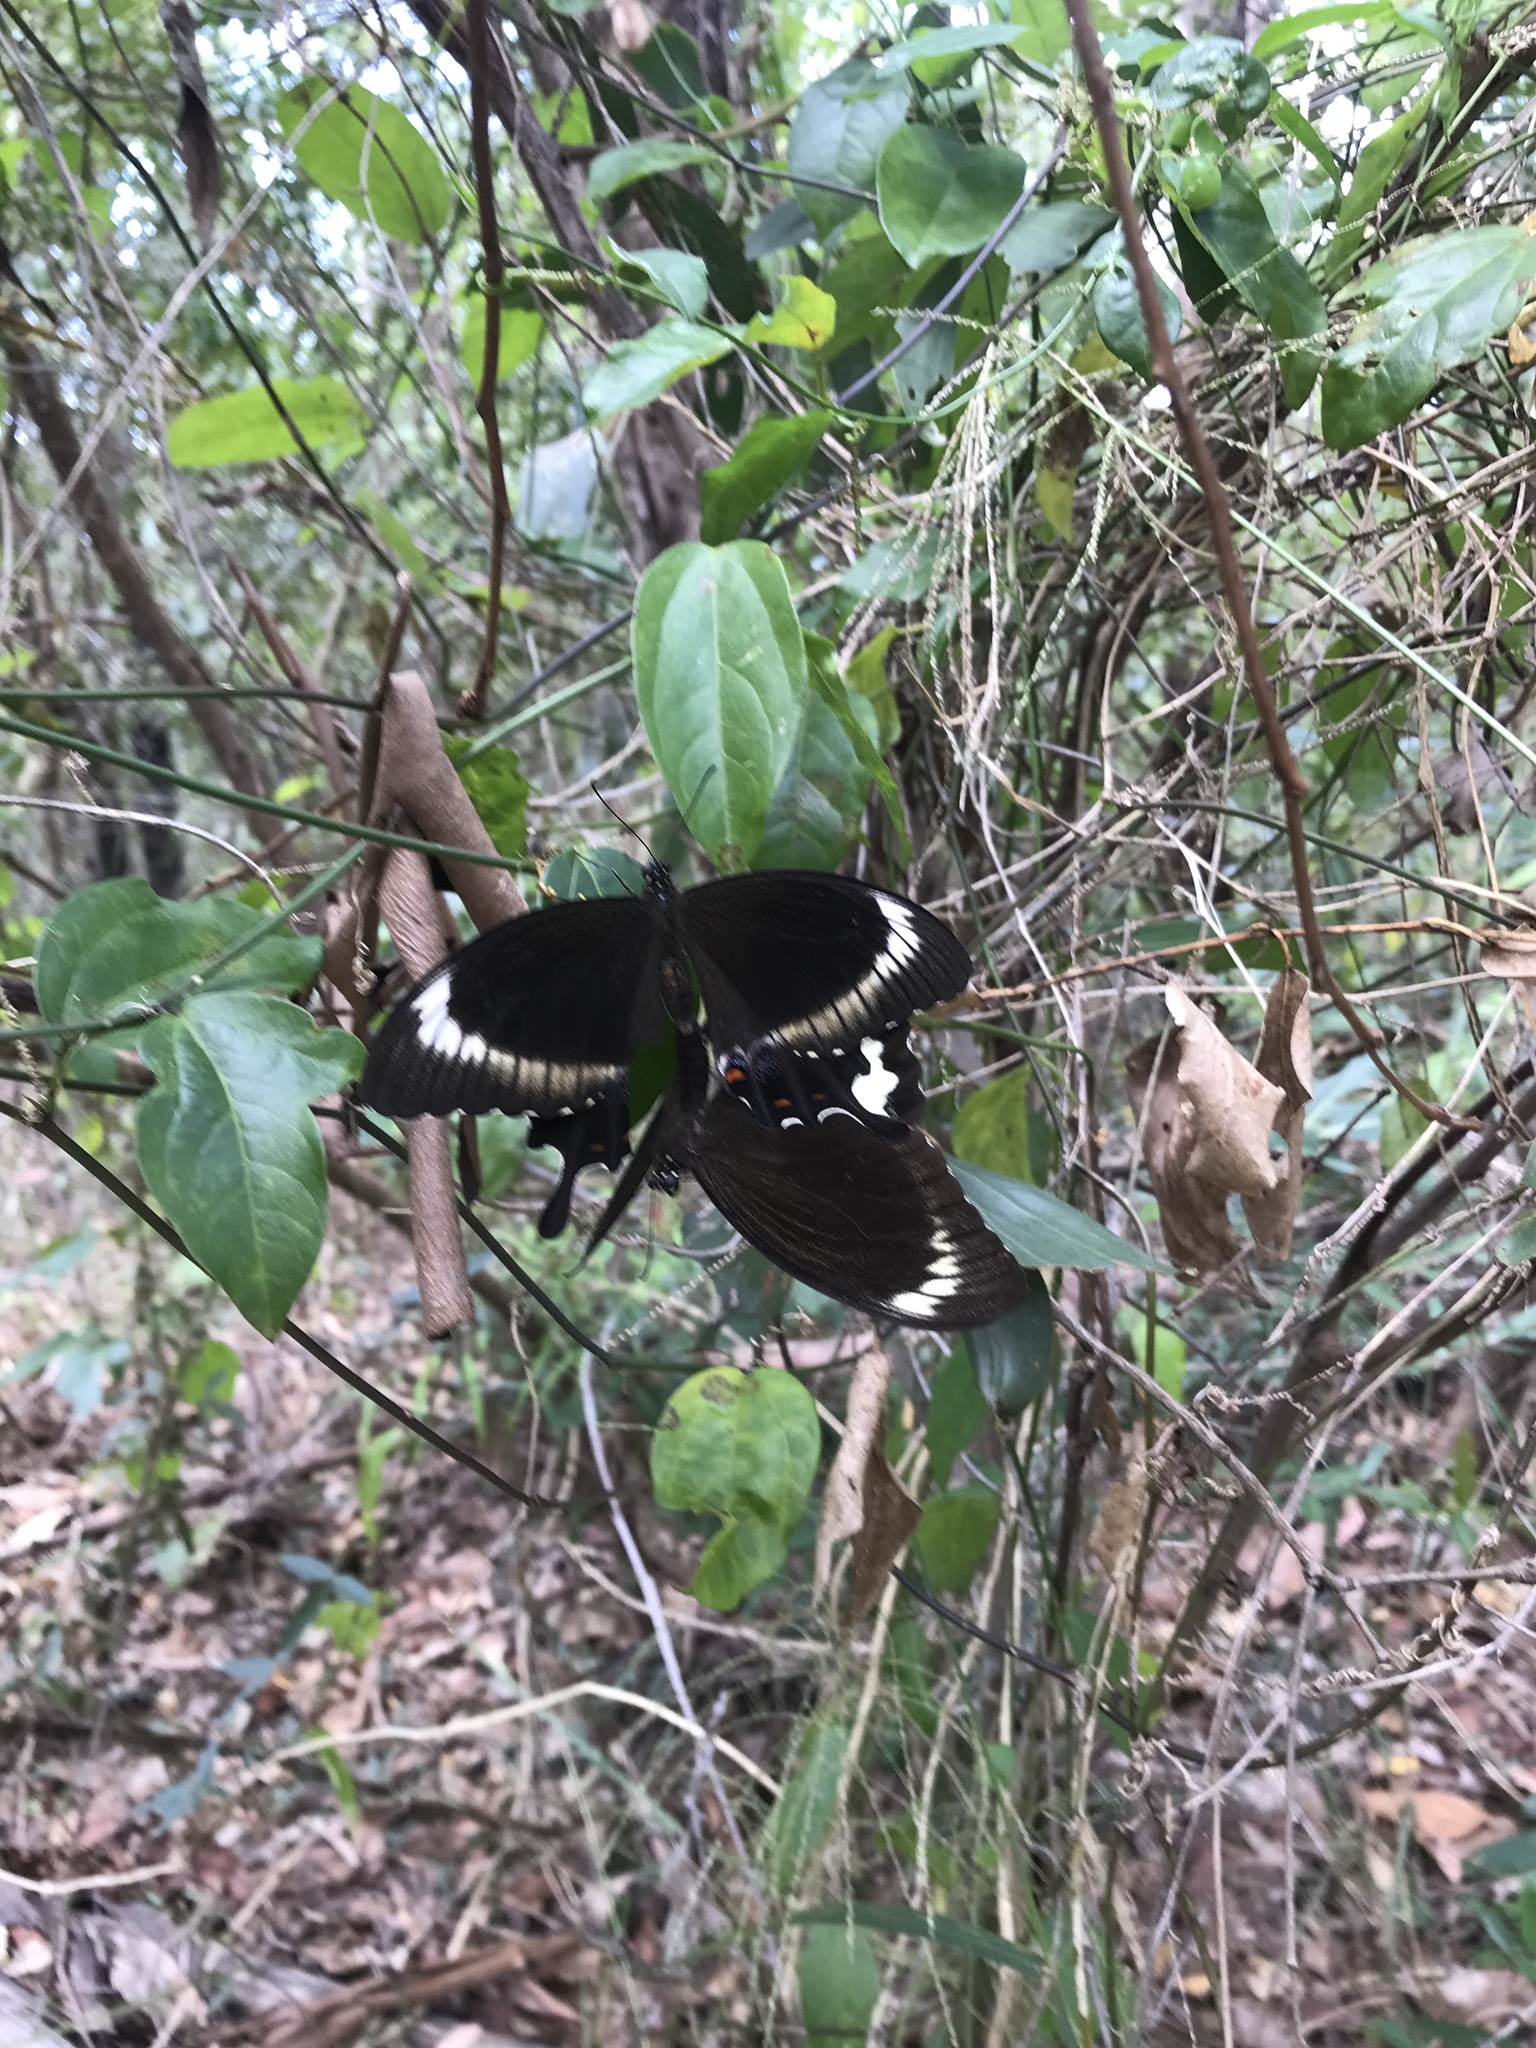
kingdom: Animalia
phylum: Arthropoda
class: Insecta
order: Lepidoptera
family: Lycaenidae
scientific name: Lycaenidae
